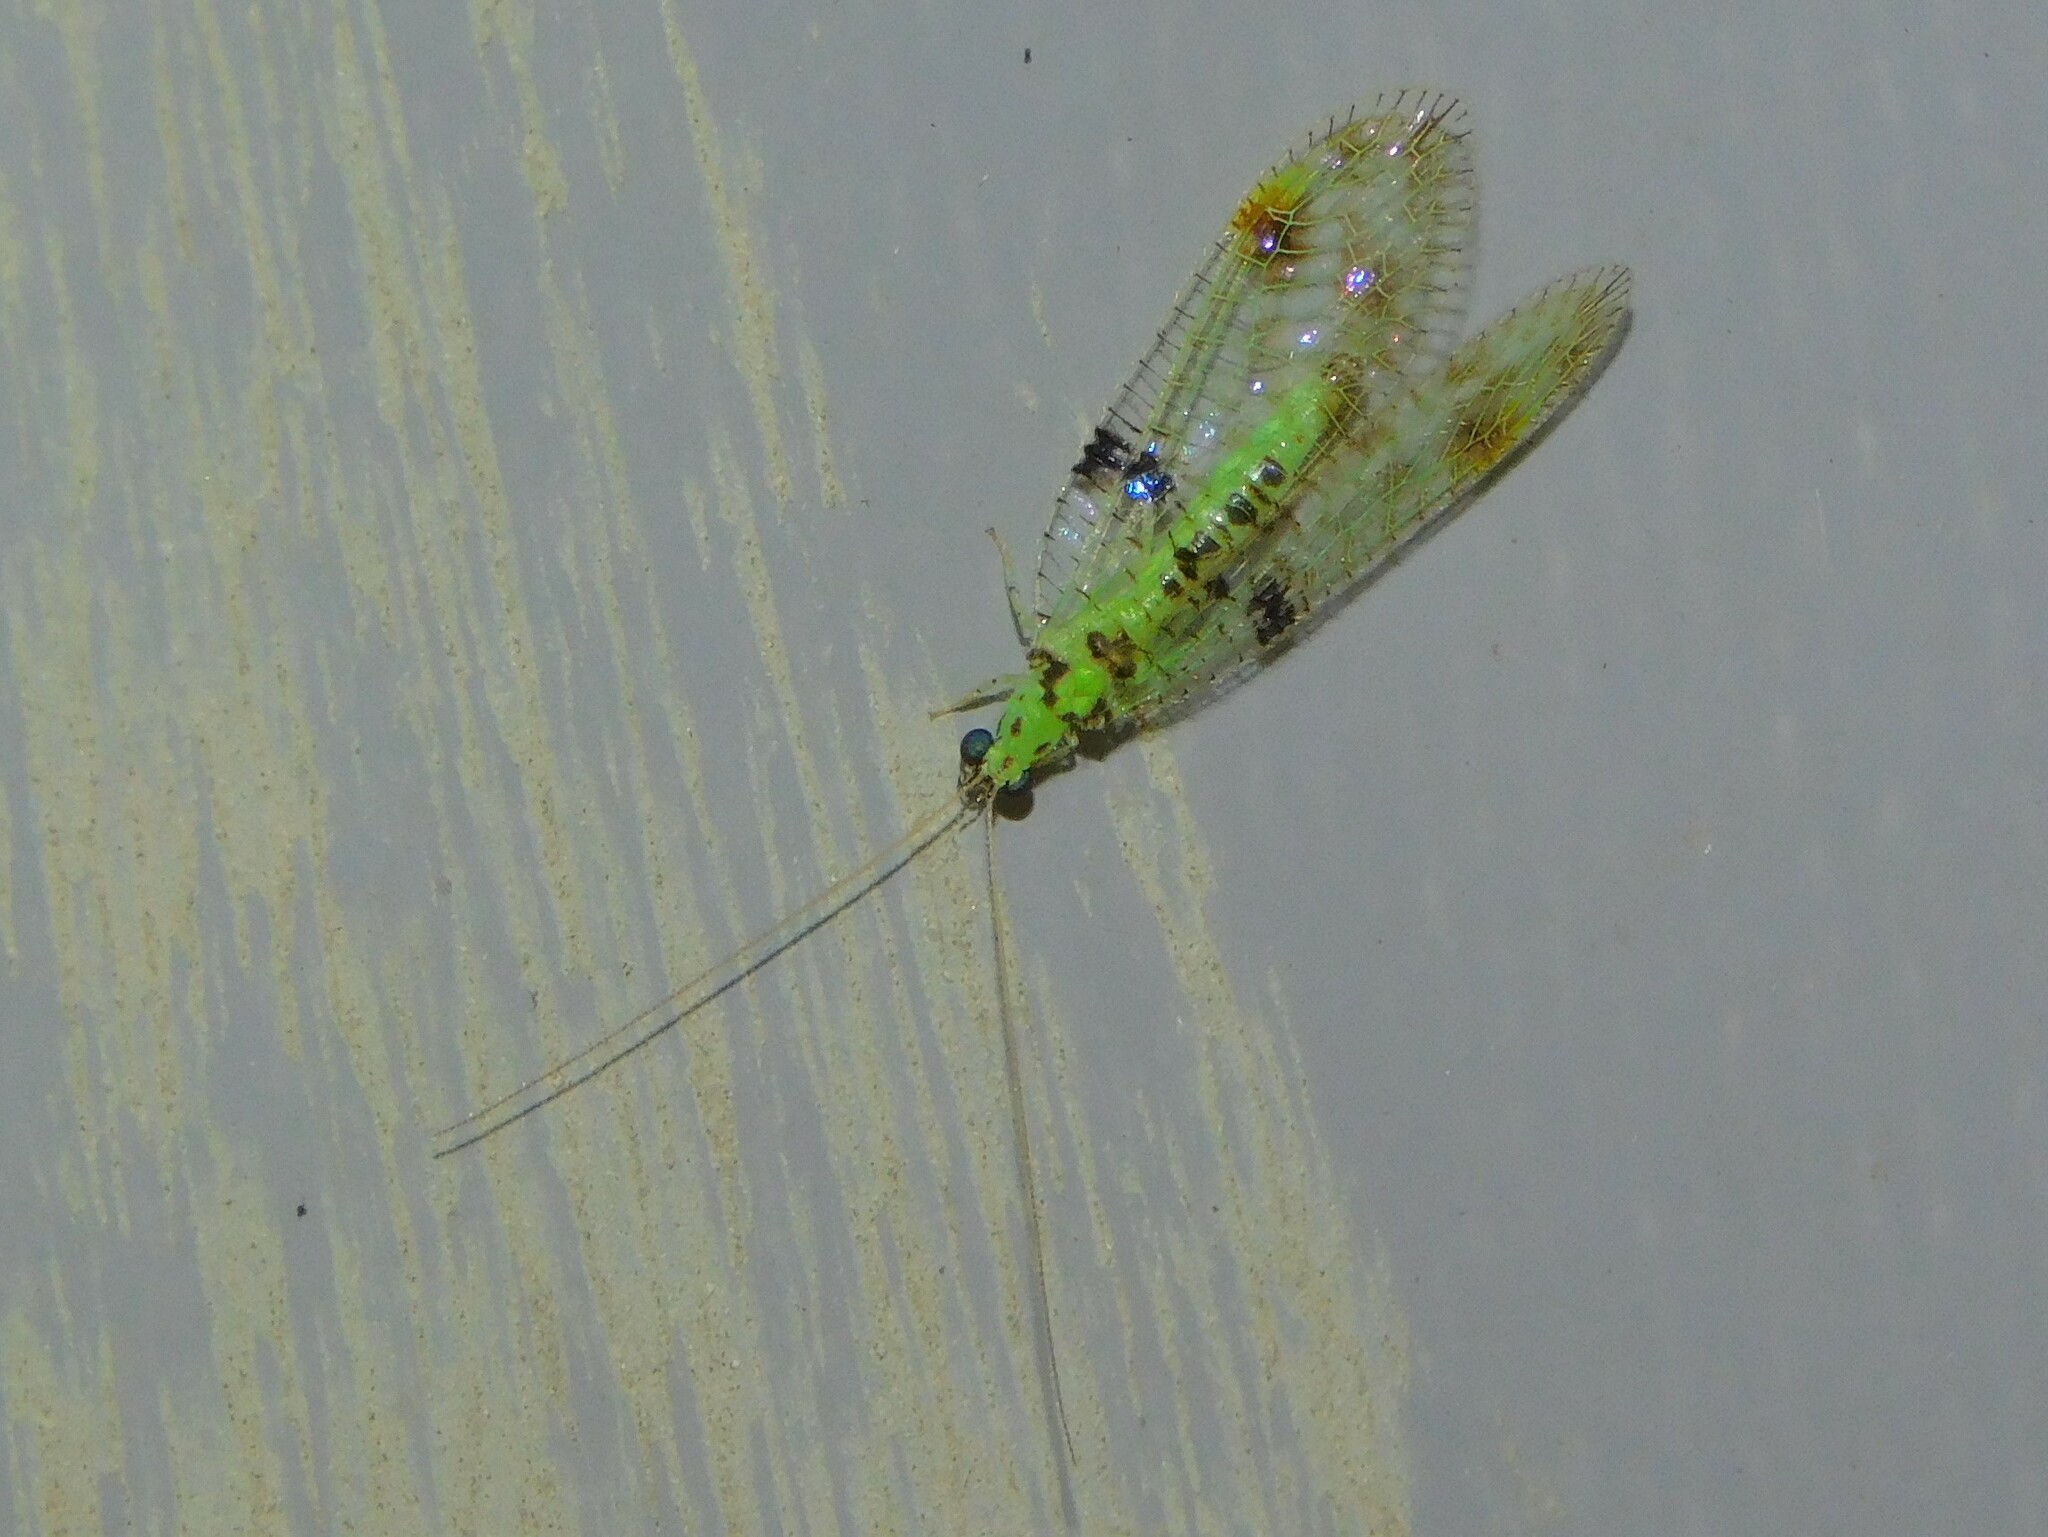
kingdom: Animalia
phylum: Arthropoda
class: Insecta
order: Neuroptera
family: Chrysopidae
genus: Glenochrysa
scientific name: Glenochrysa principissa
